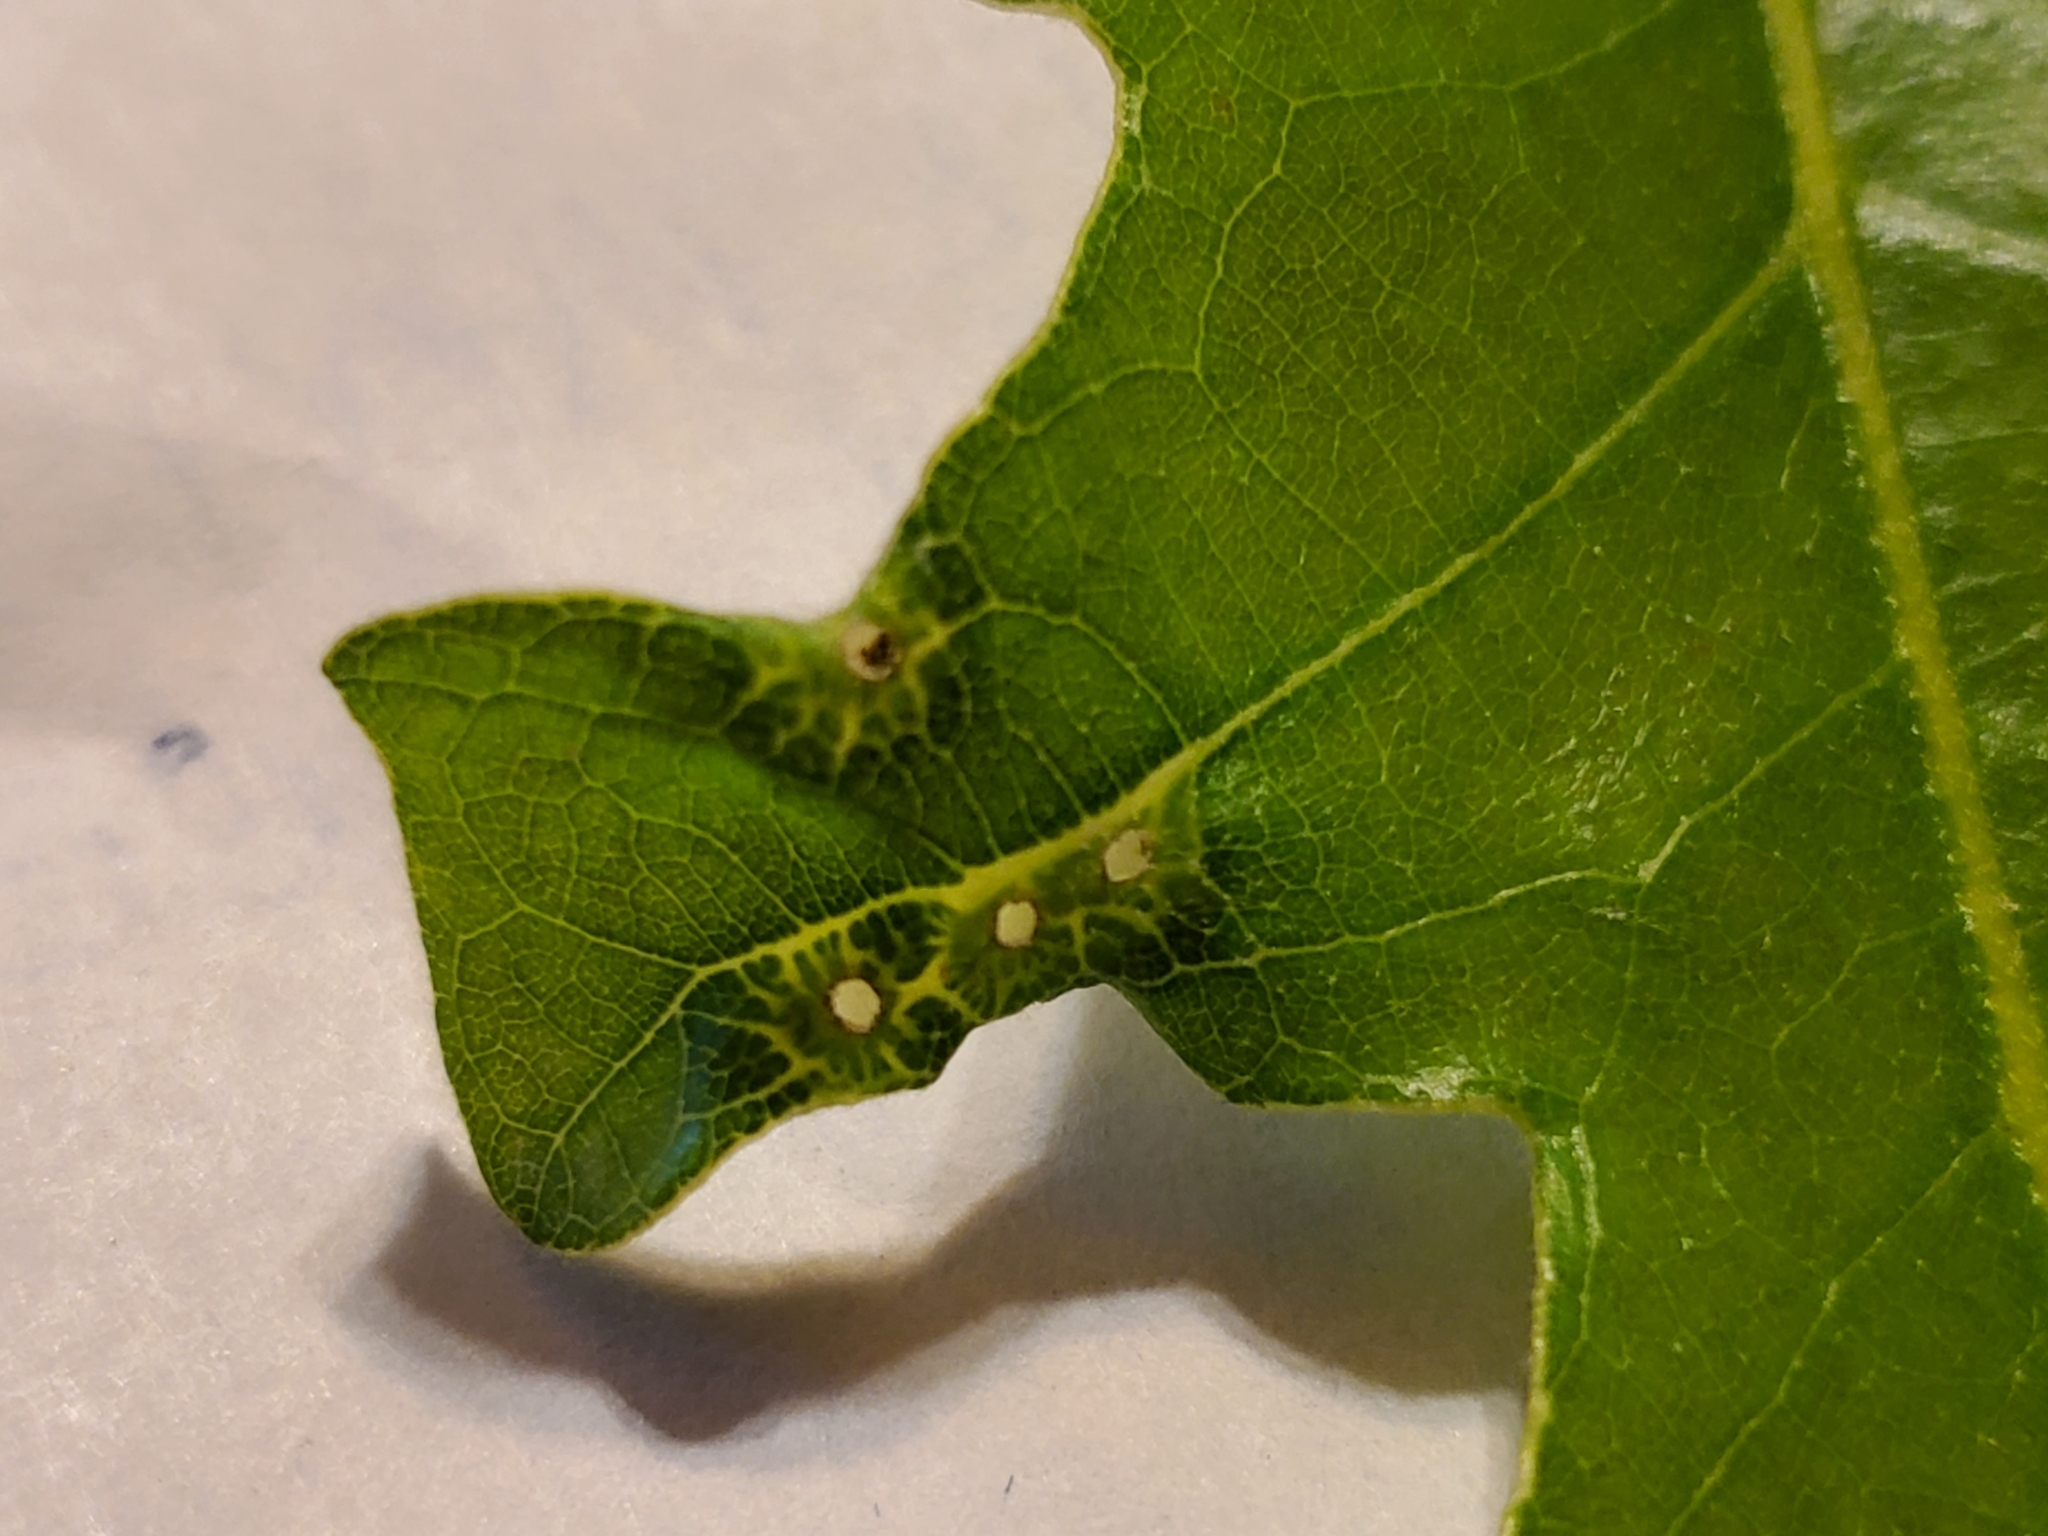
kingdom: Animalia
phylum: Arthropoda
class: Insecta
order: Hymenoptera
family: Cynipidae
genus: Neuroterus
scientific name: Neuroterus
